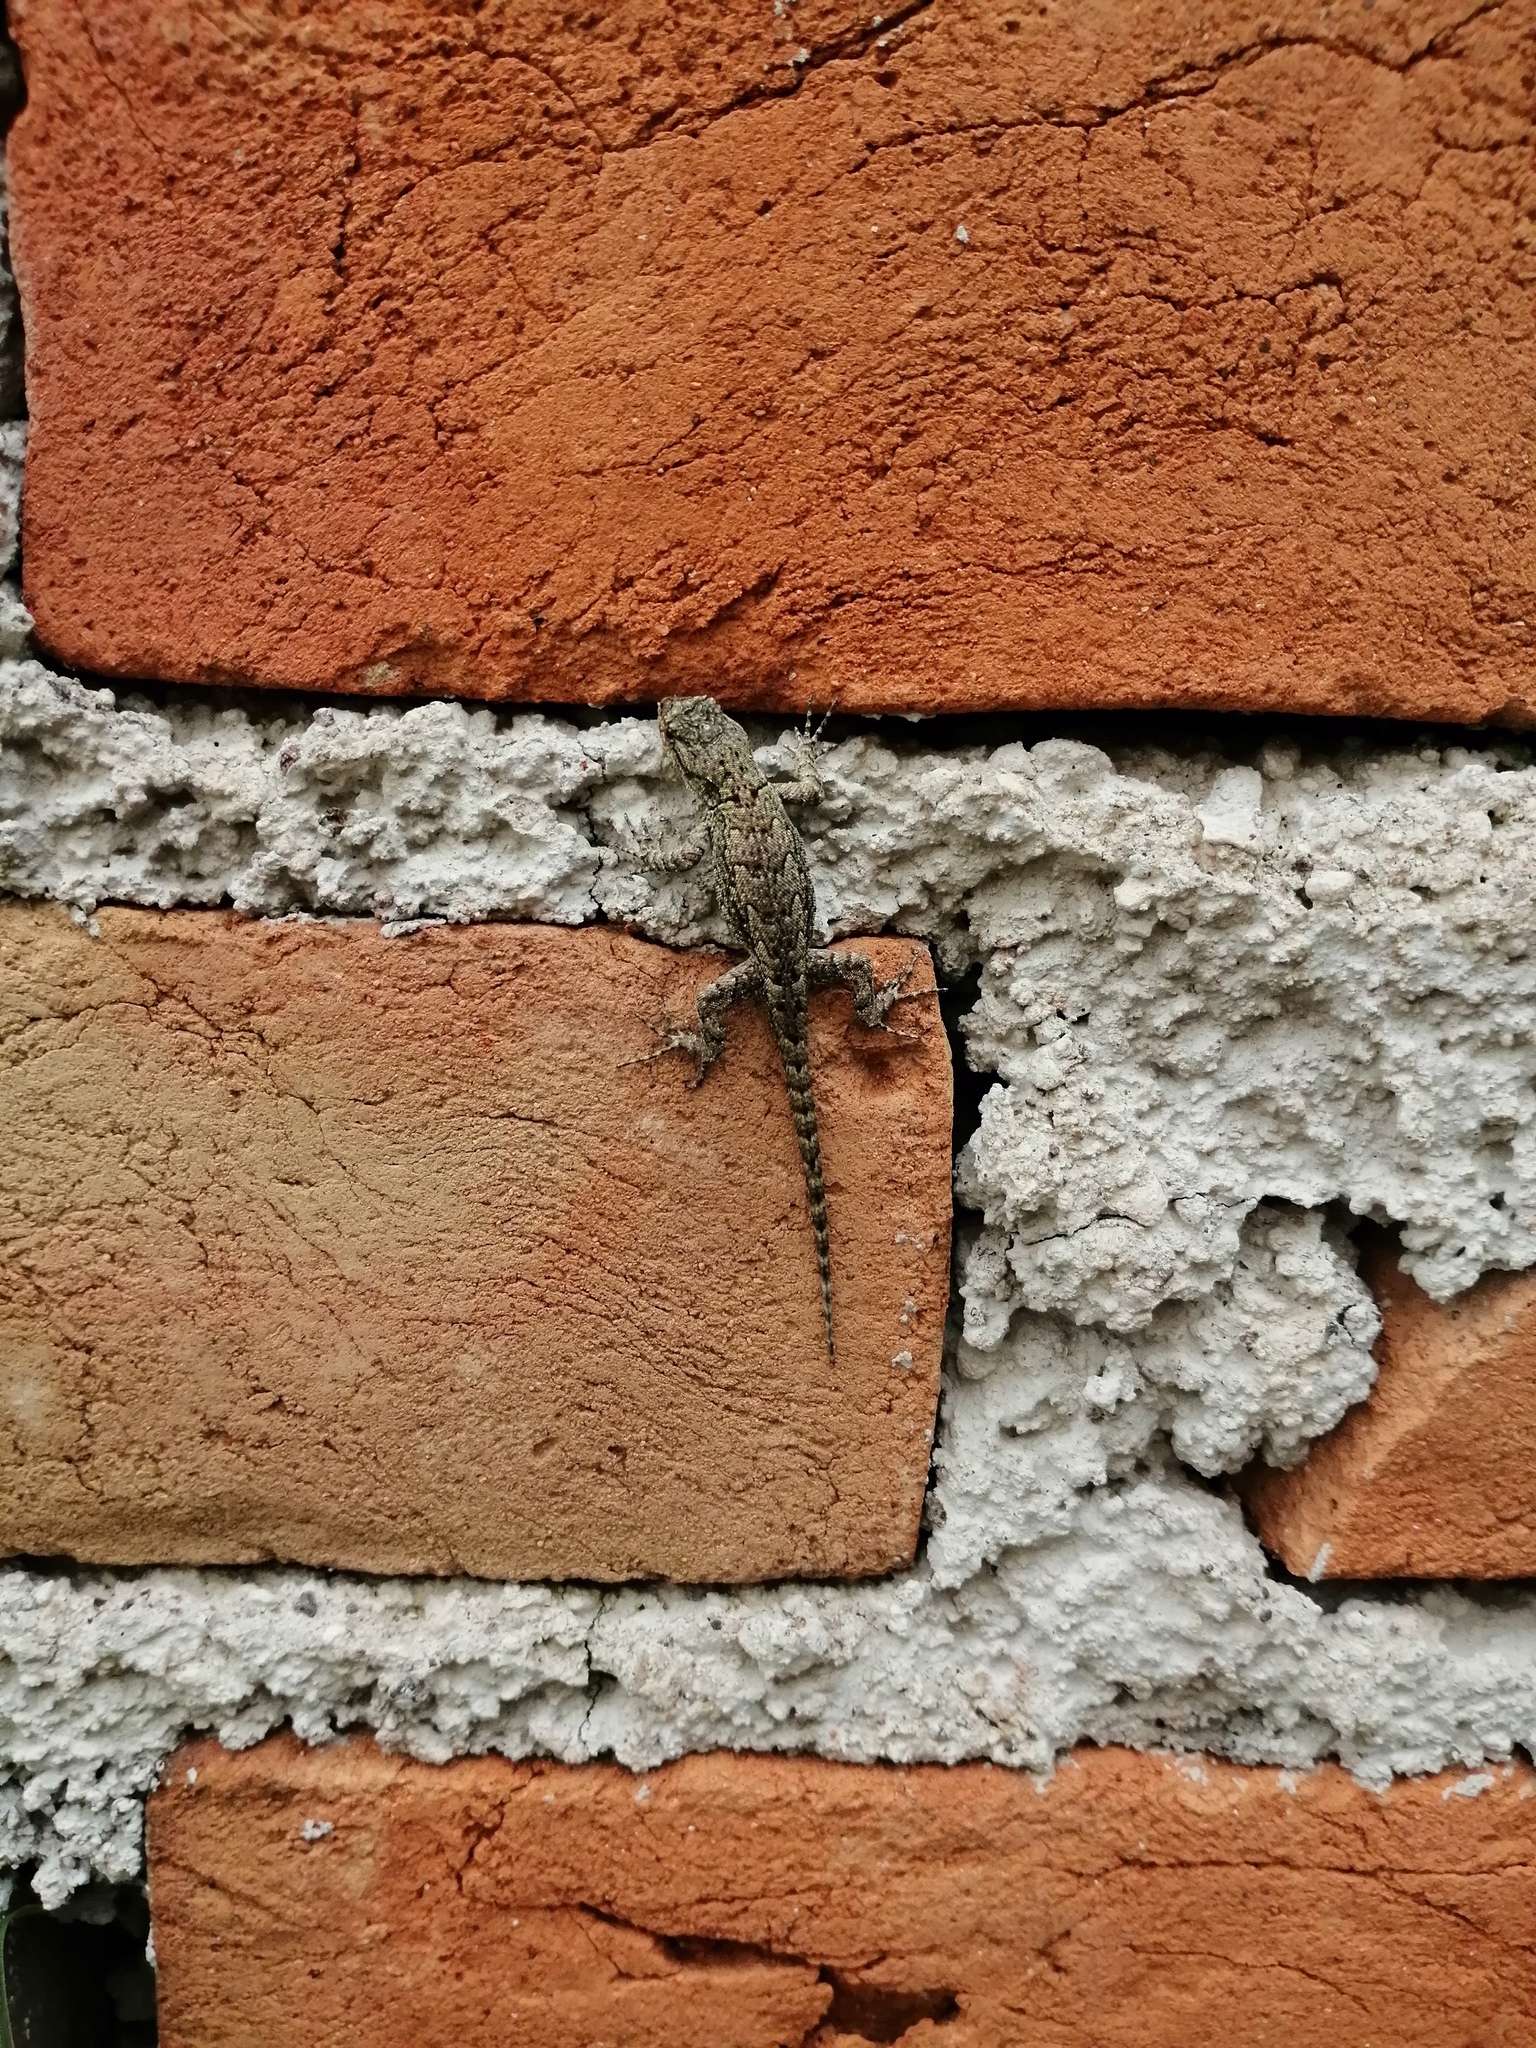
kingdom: Animalia
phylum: Chordata
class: Squamata
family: Phrynosomatidae
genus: Sceloporus
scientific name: Sceloporus grammicus
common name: Mesquite lizard
